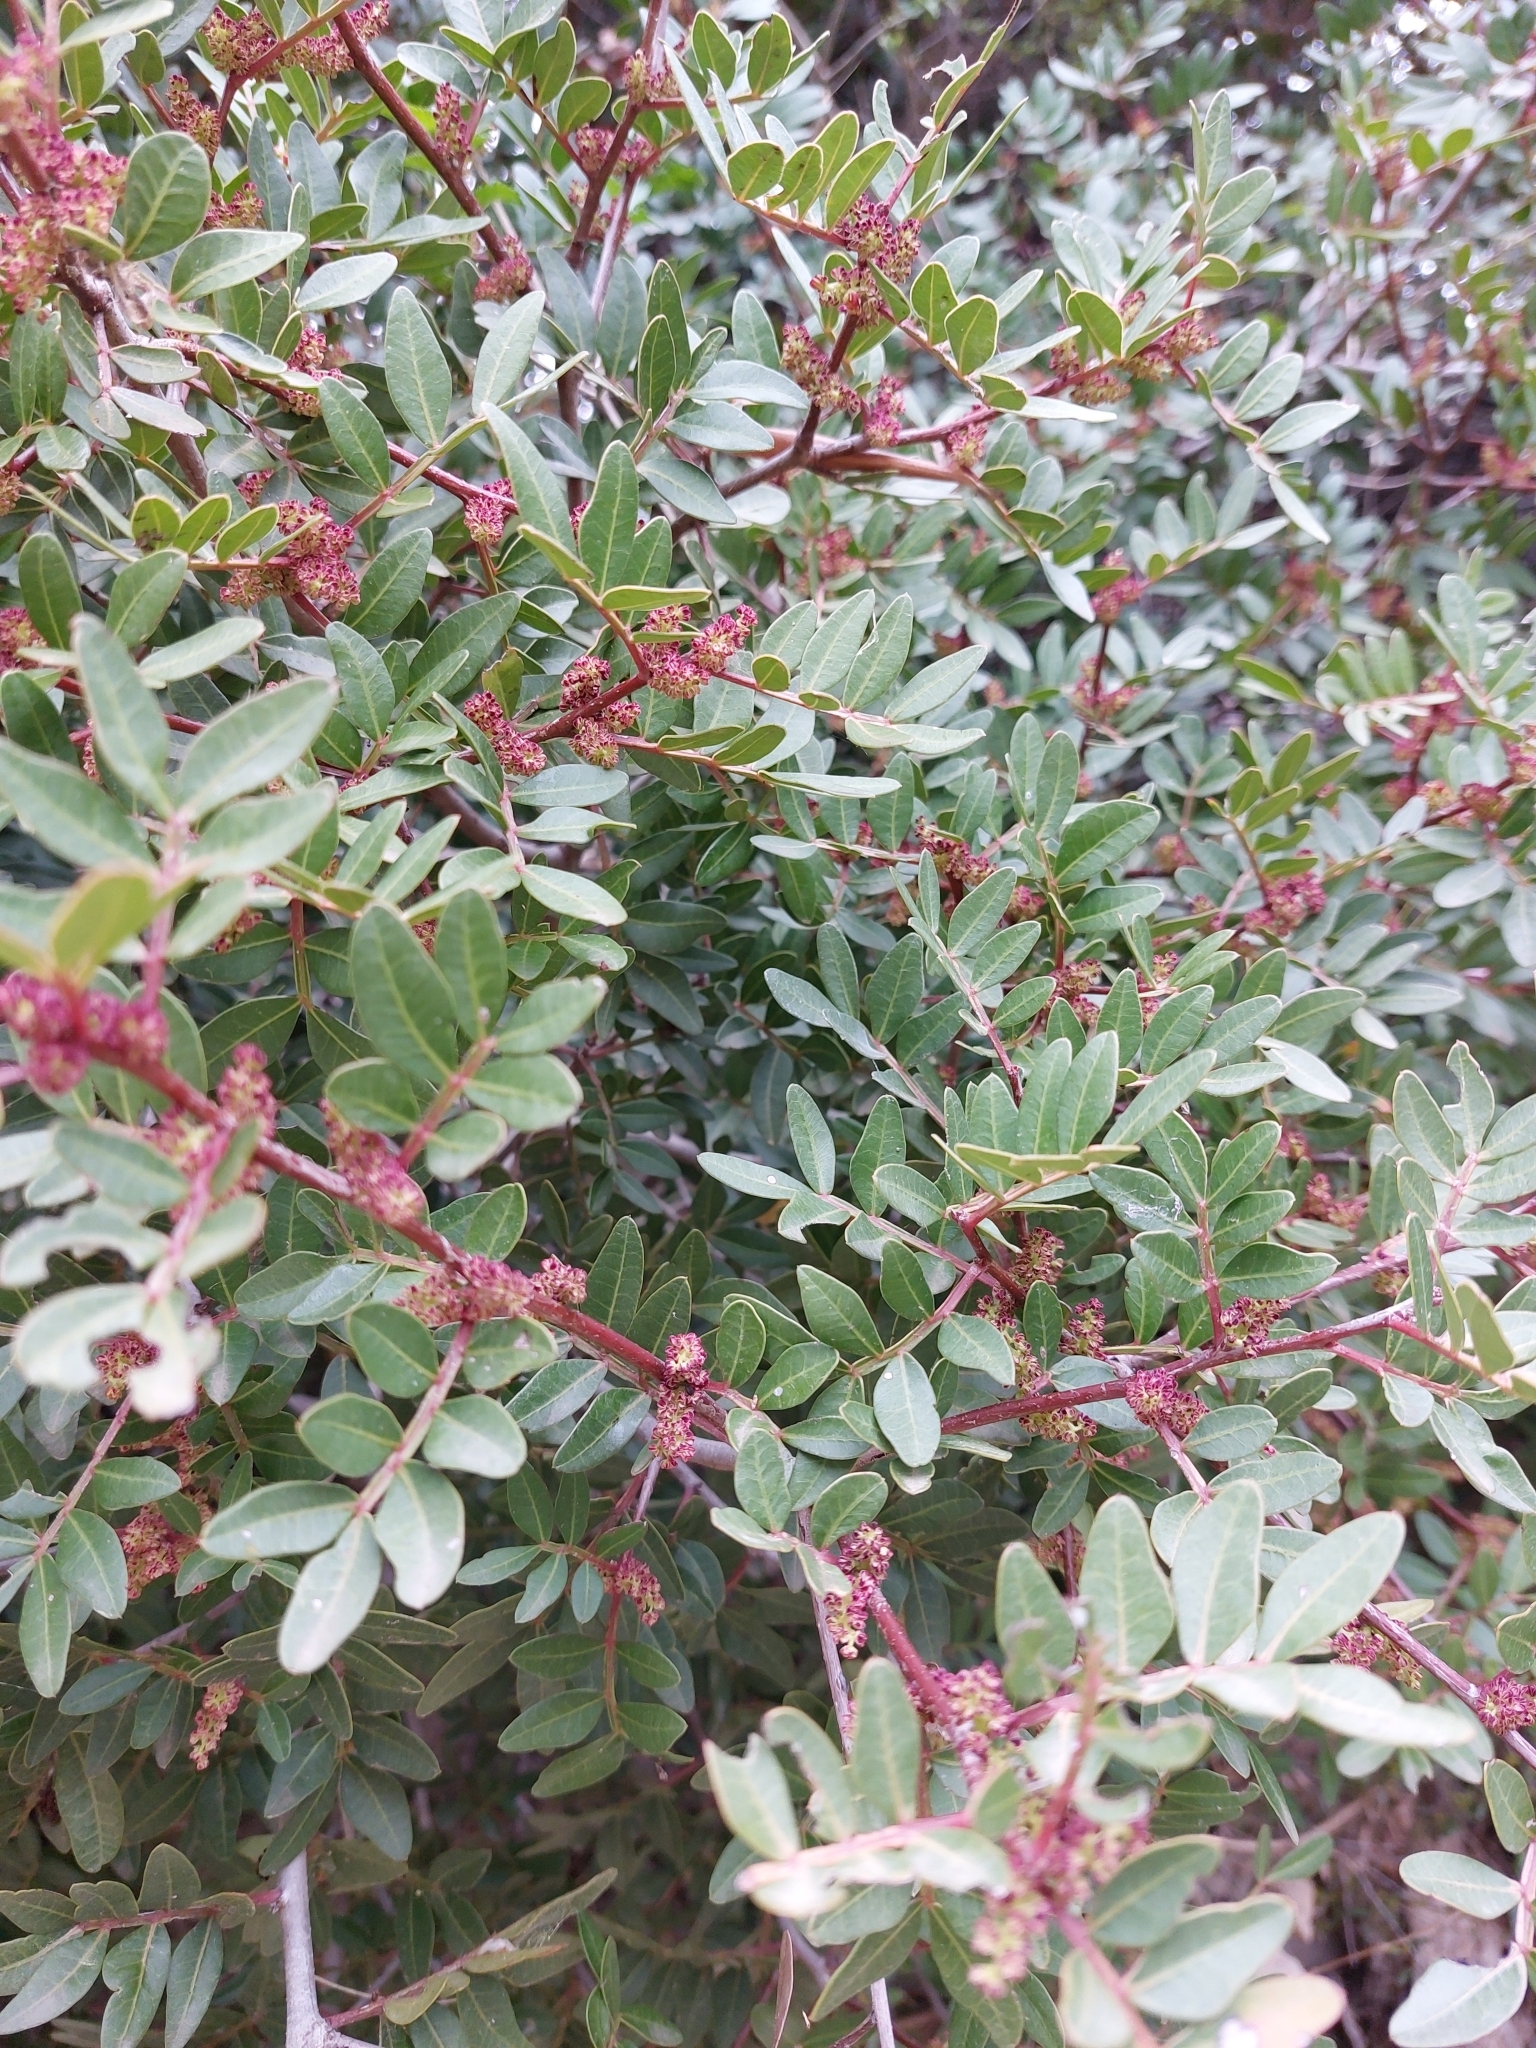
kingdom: Plantae
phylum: Tracheophyta
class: Magnoliopsida
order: Sapindales
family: Anacardiaceae
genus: Pistacia
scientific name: Pistacia lentiscus
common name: Lentisk
